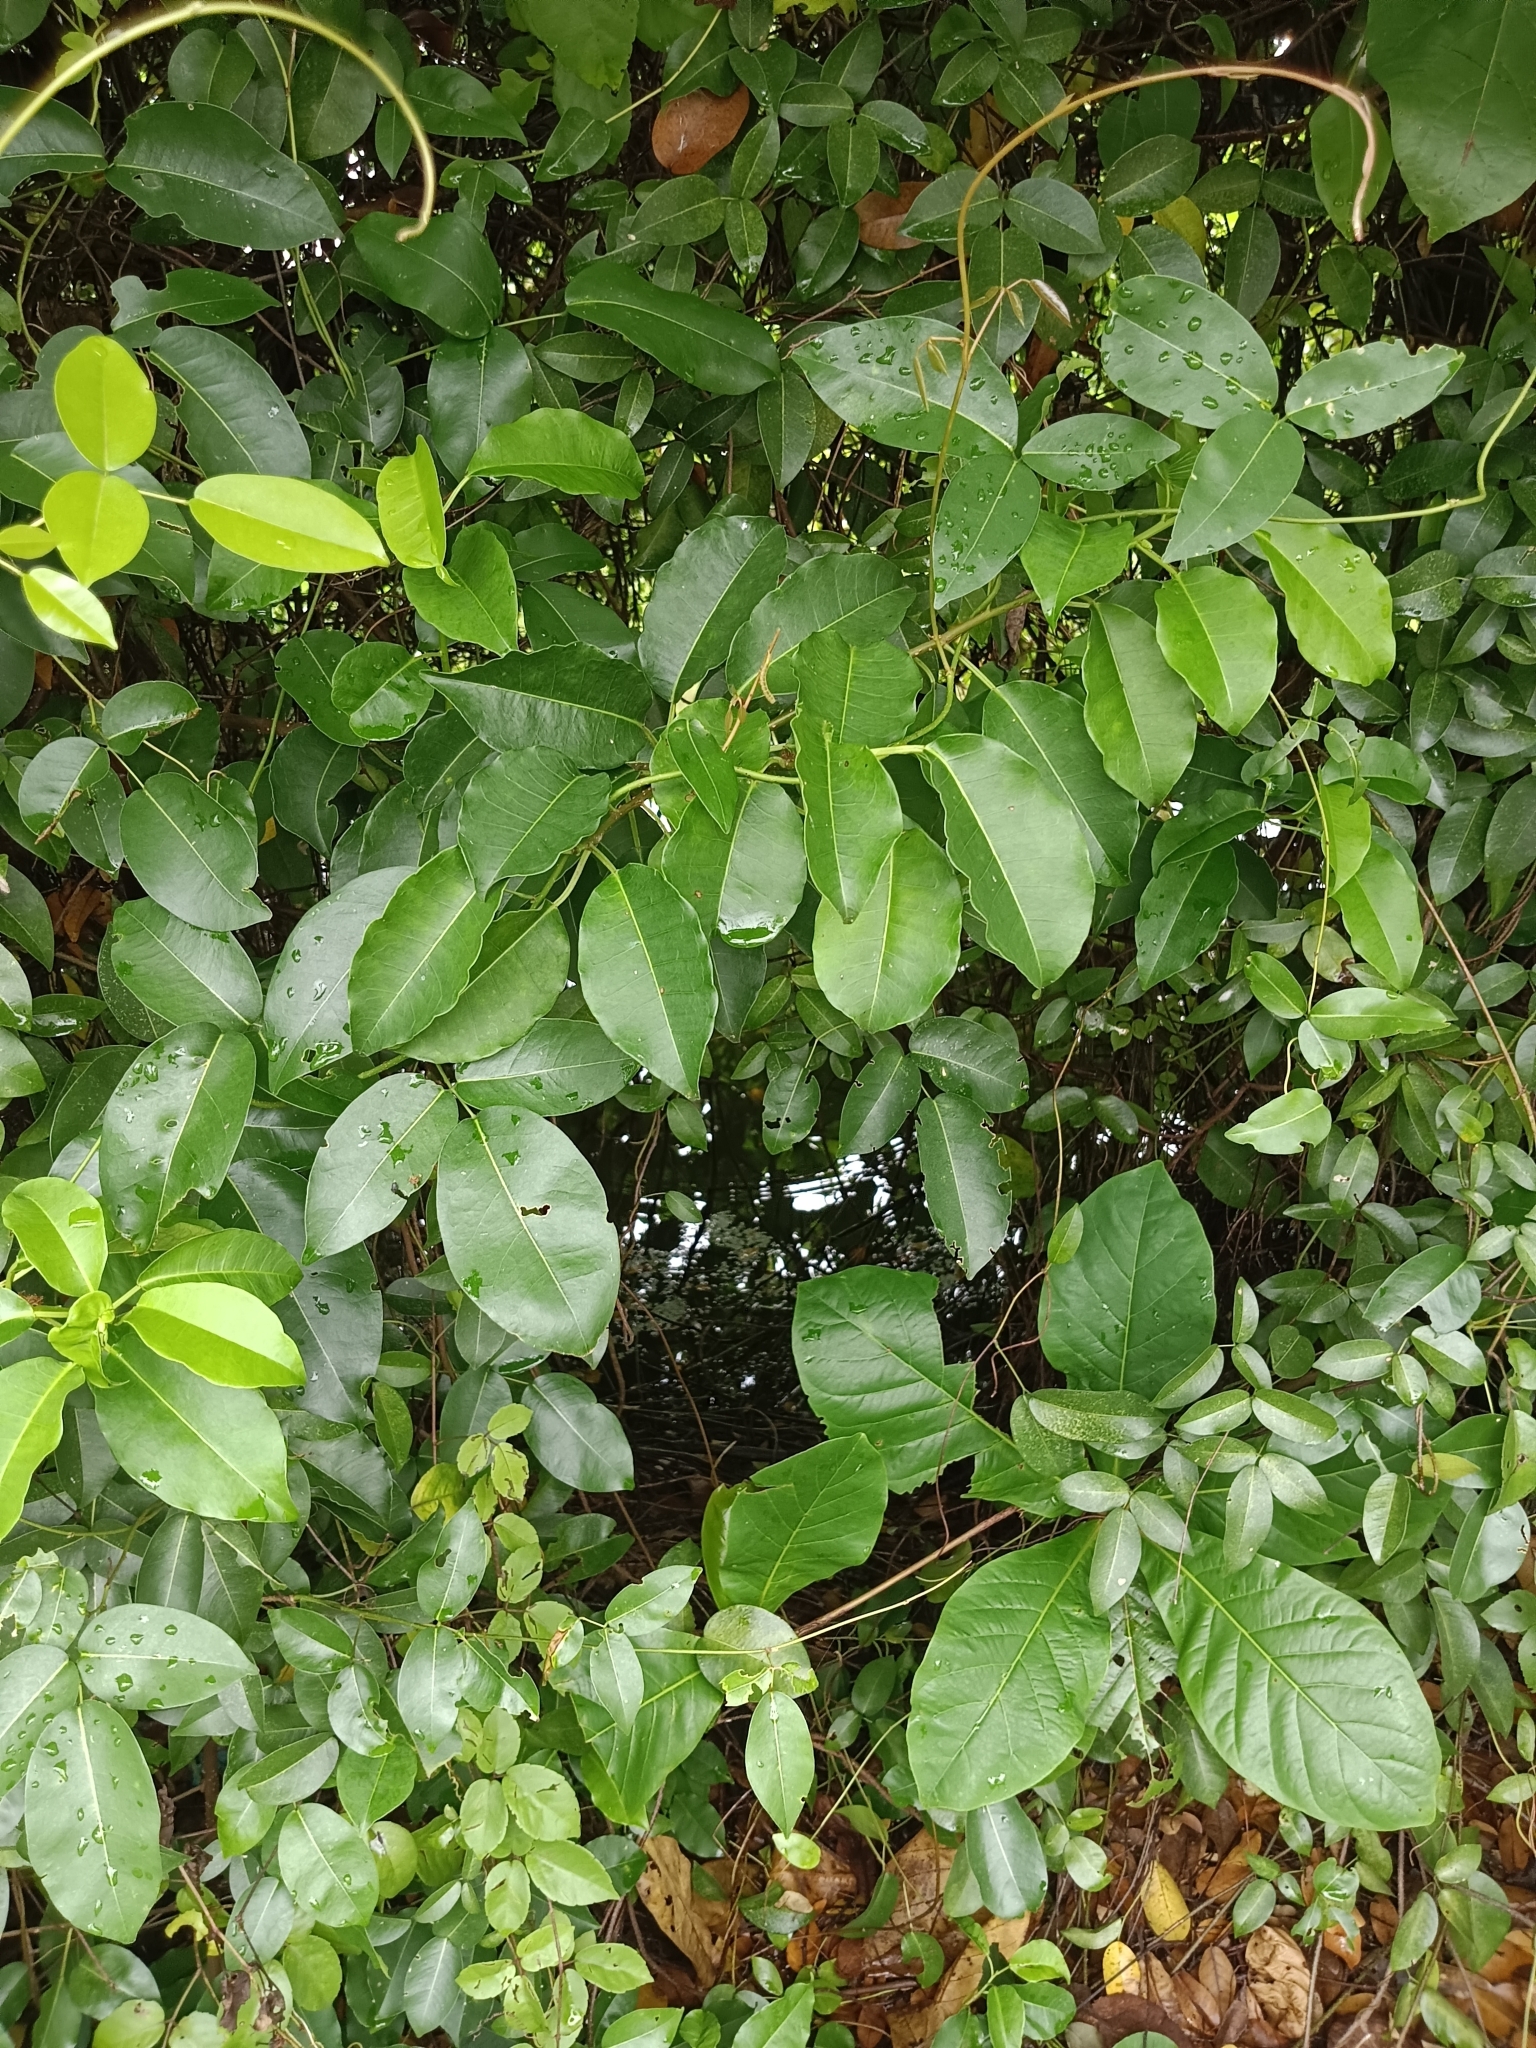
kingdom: Plantae
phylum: Tracheophyta
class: Magnoliopsida
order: Malpighiales
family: Euphorbiaceae
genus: Excoecaria
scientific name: Excoecaria agallocha
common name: River poisontree
